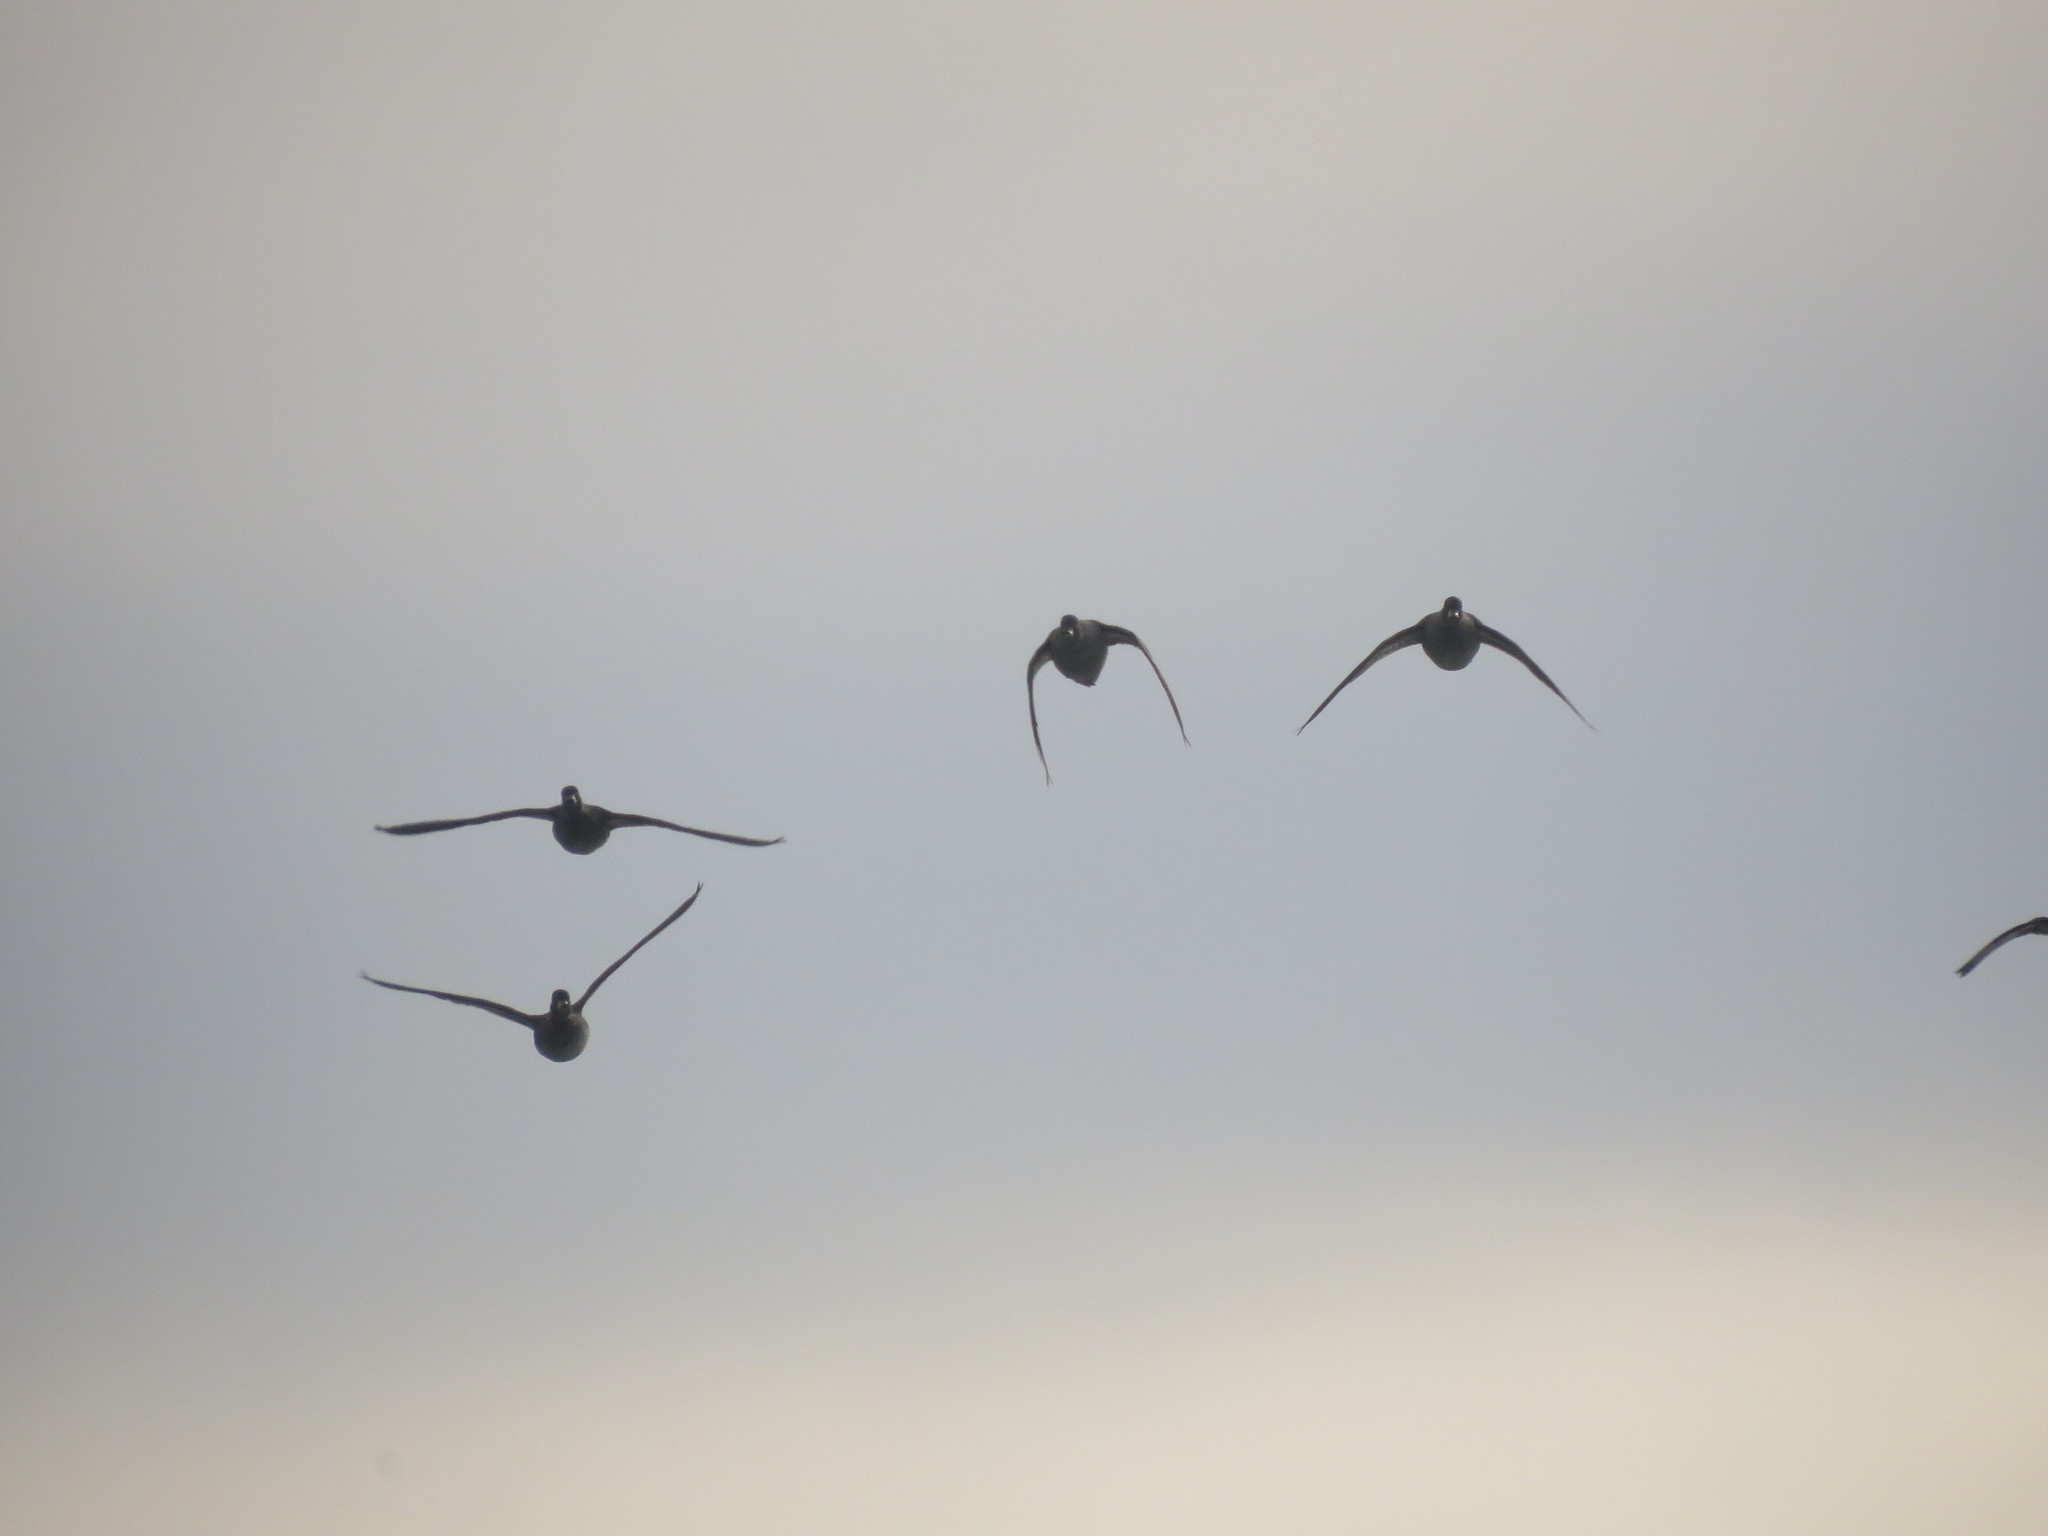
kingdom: Animalia
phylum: Chordata
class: Aves
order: Anseriformes
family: Anatidae
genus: Anas
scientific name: Anas flavirostris
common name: Yellow-billed teal
